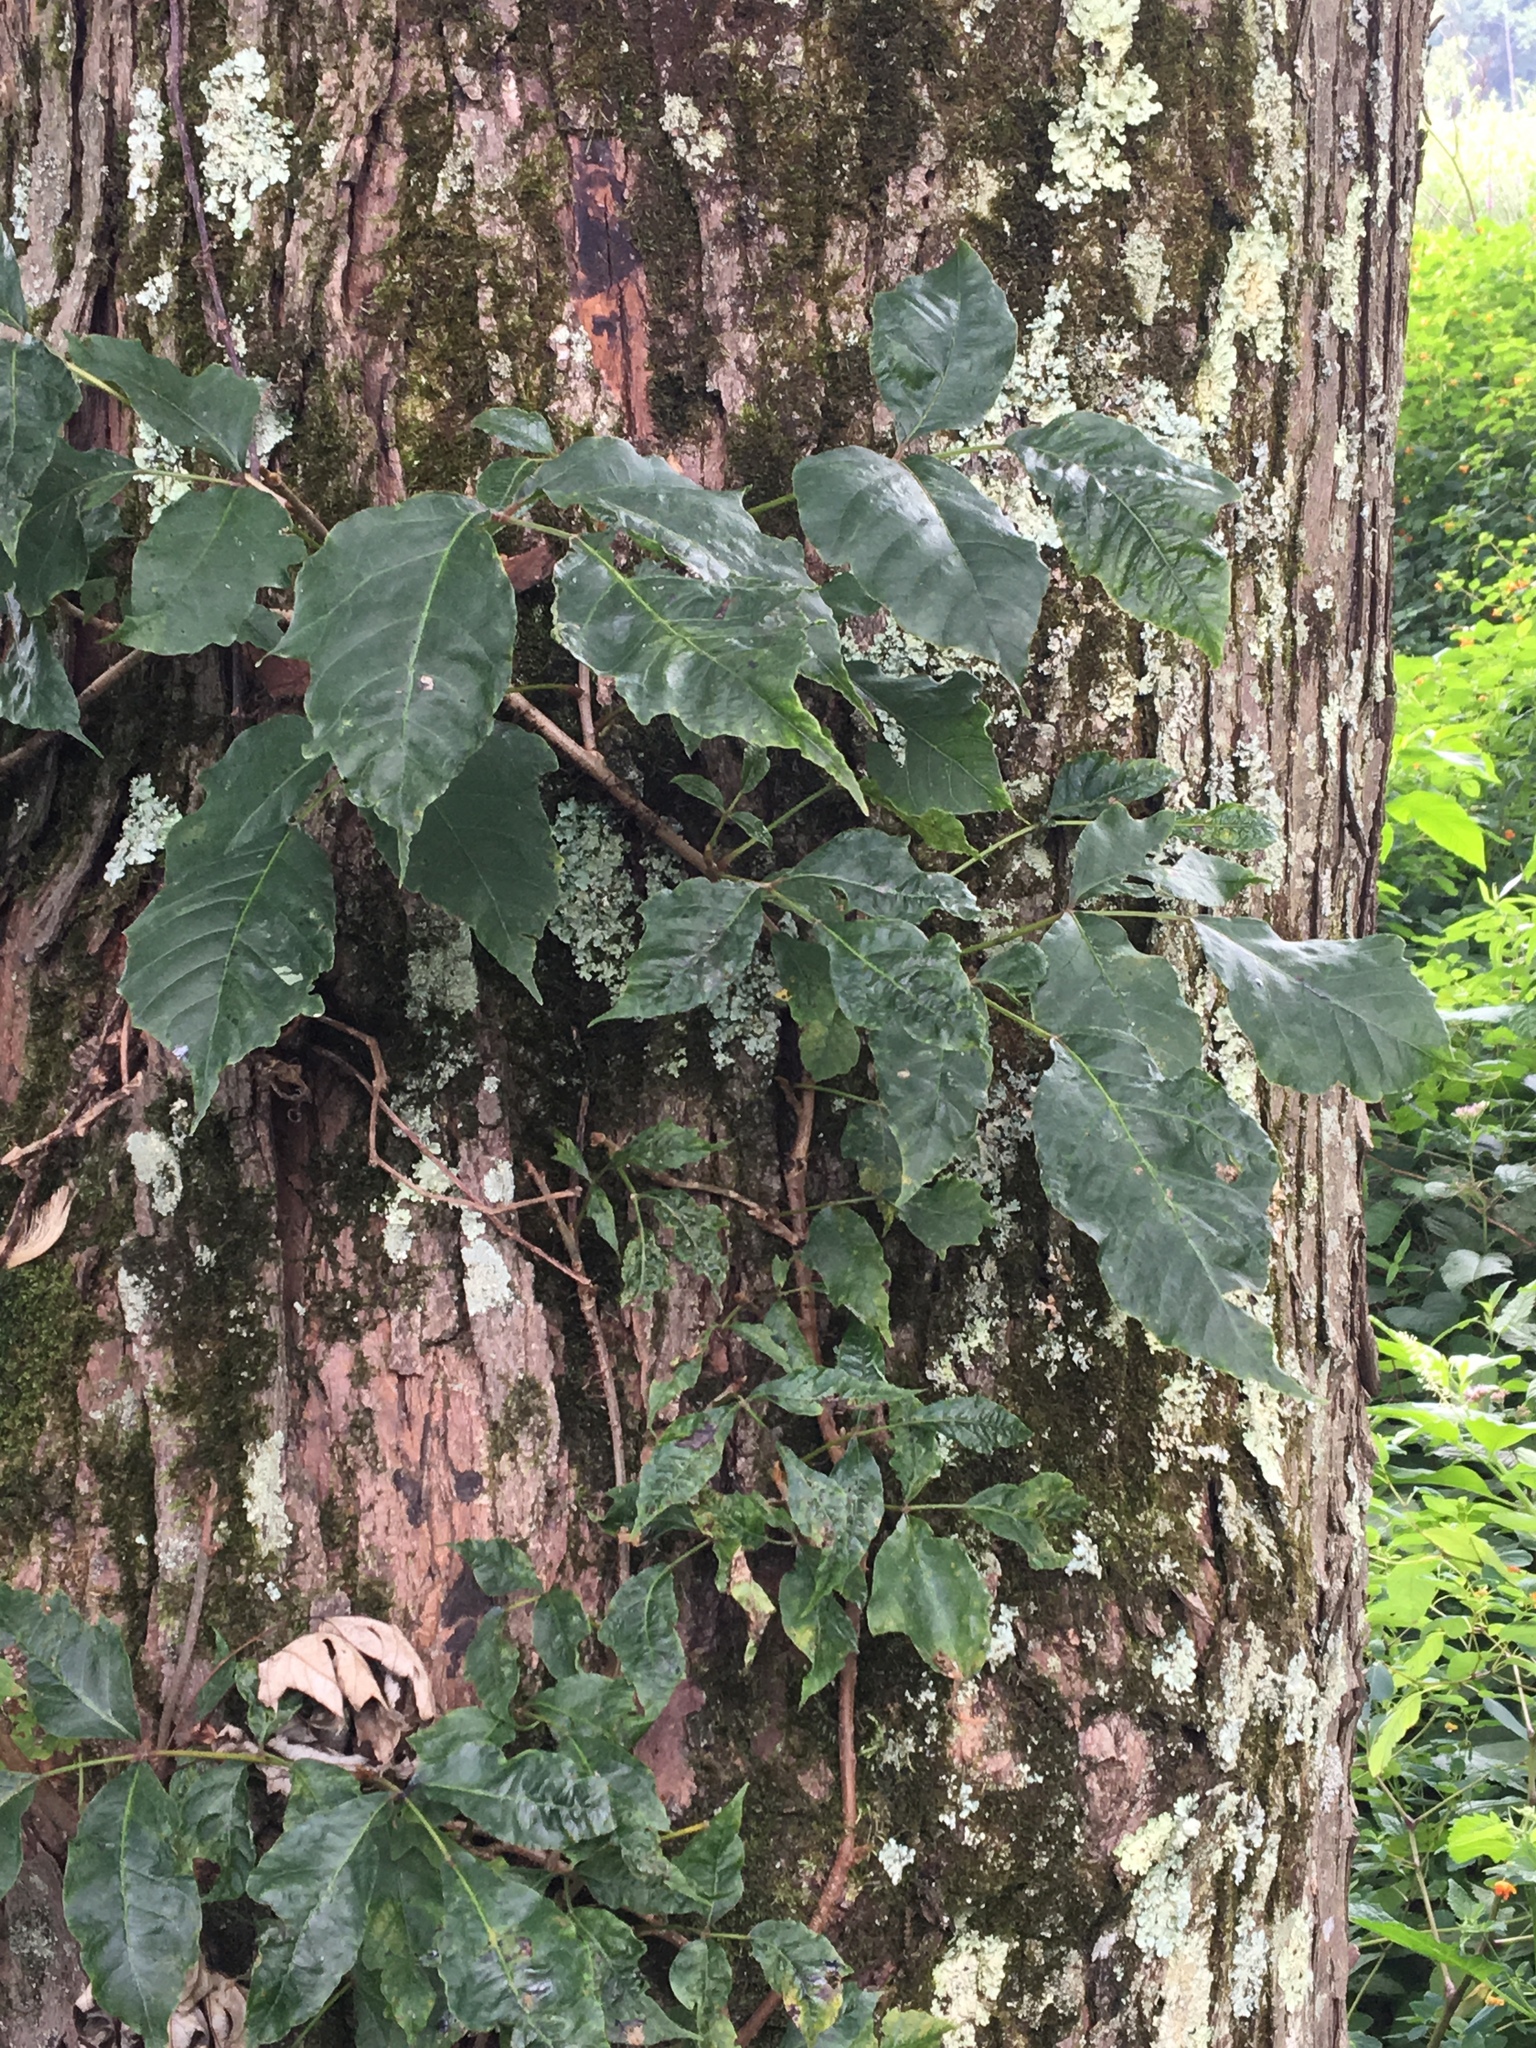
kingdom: Plantae
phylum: Tracheophyta
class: Magnoliopsida
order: Sapindales
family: Anacardiaceae
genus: Toxicodendron
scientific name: Toxicodendron radicans
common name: Poison ivy
